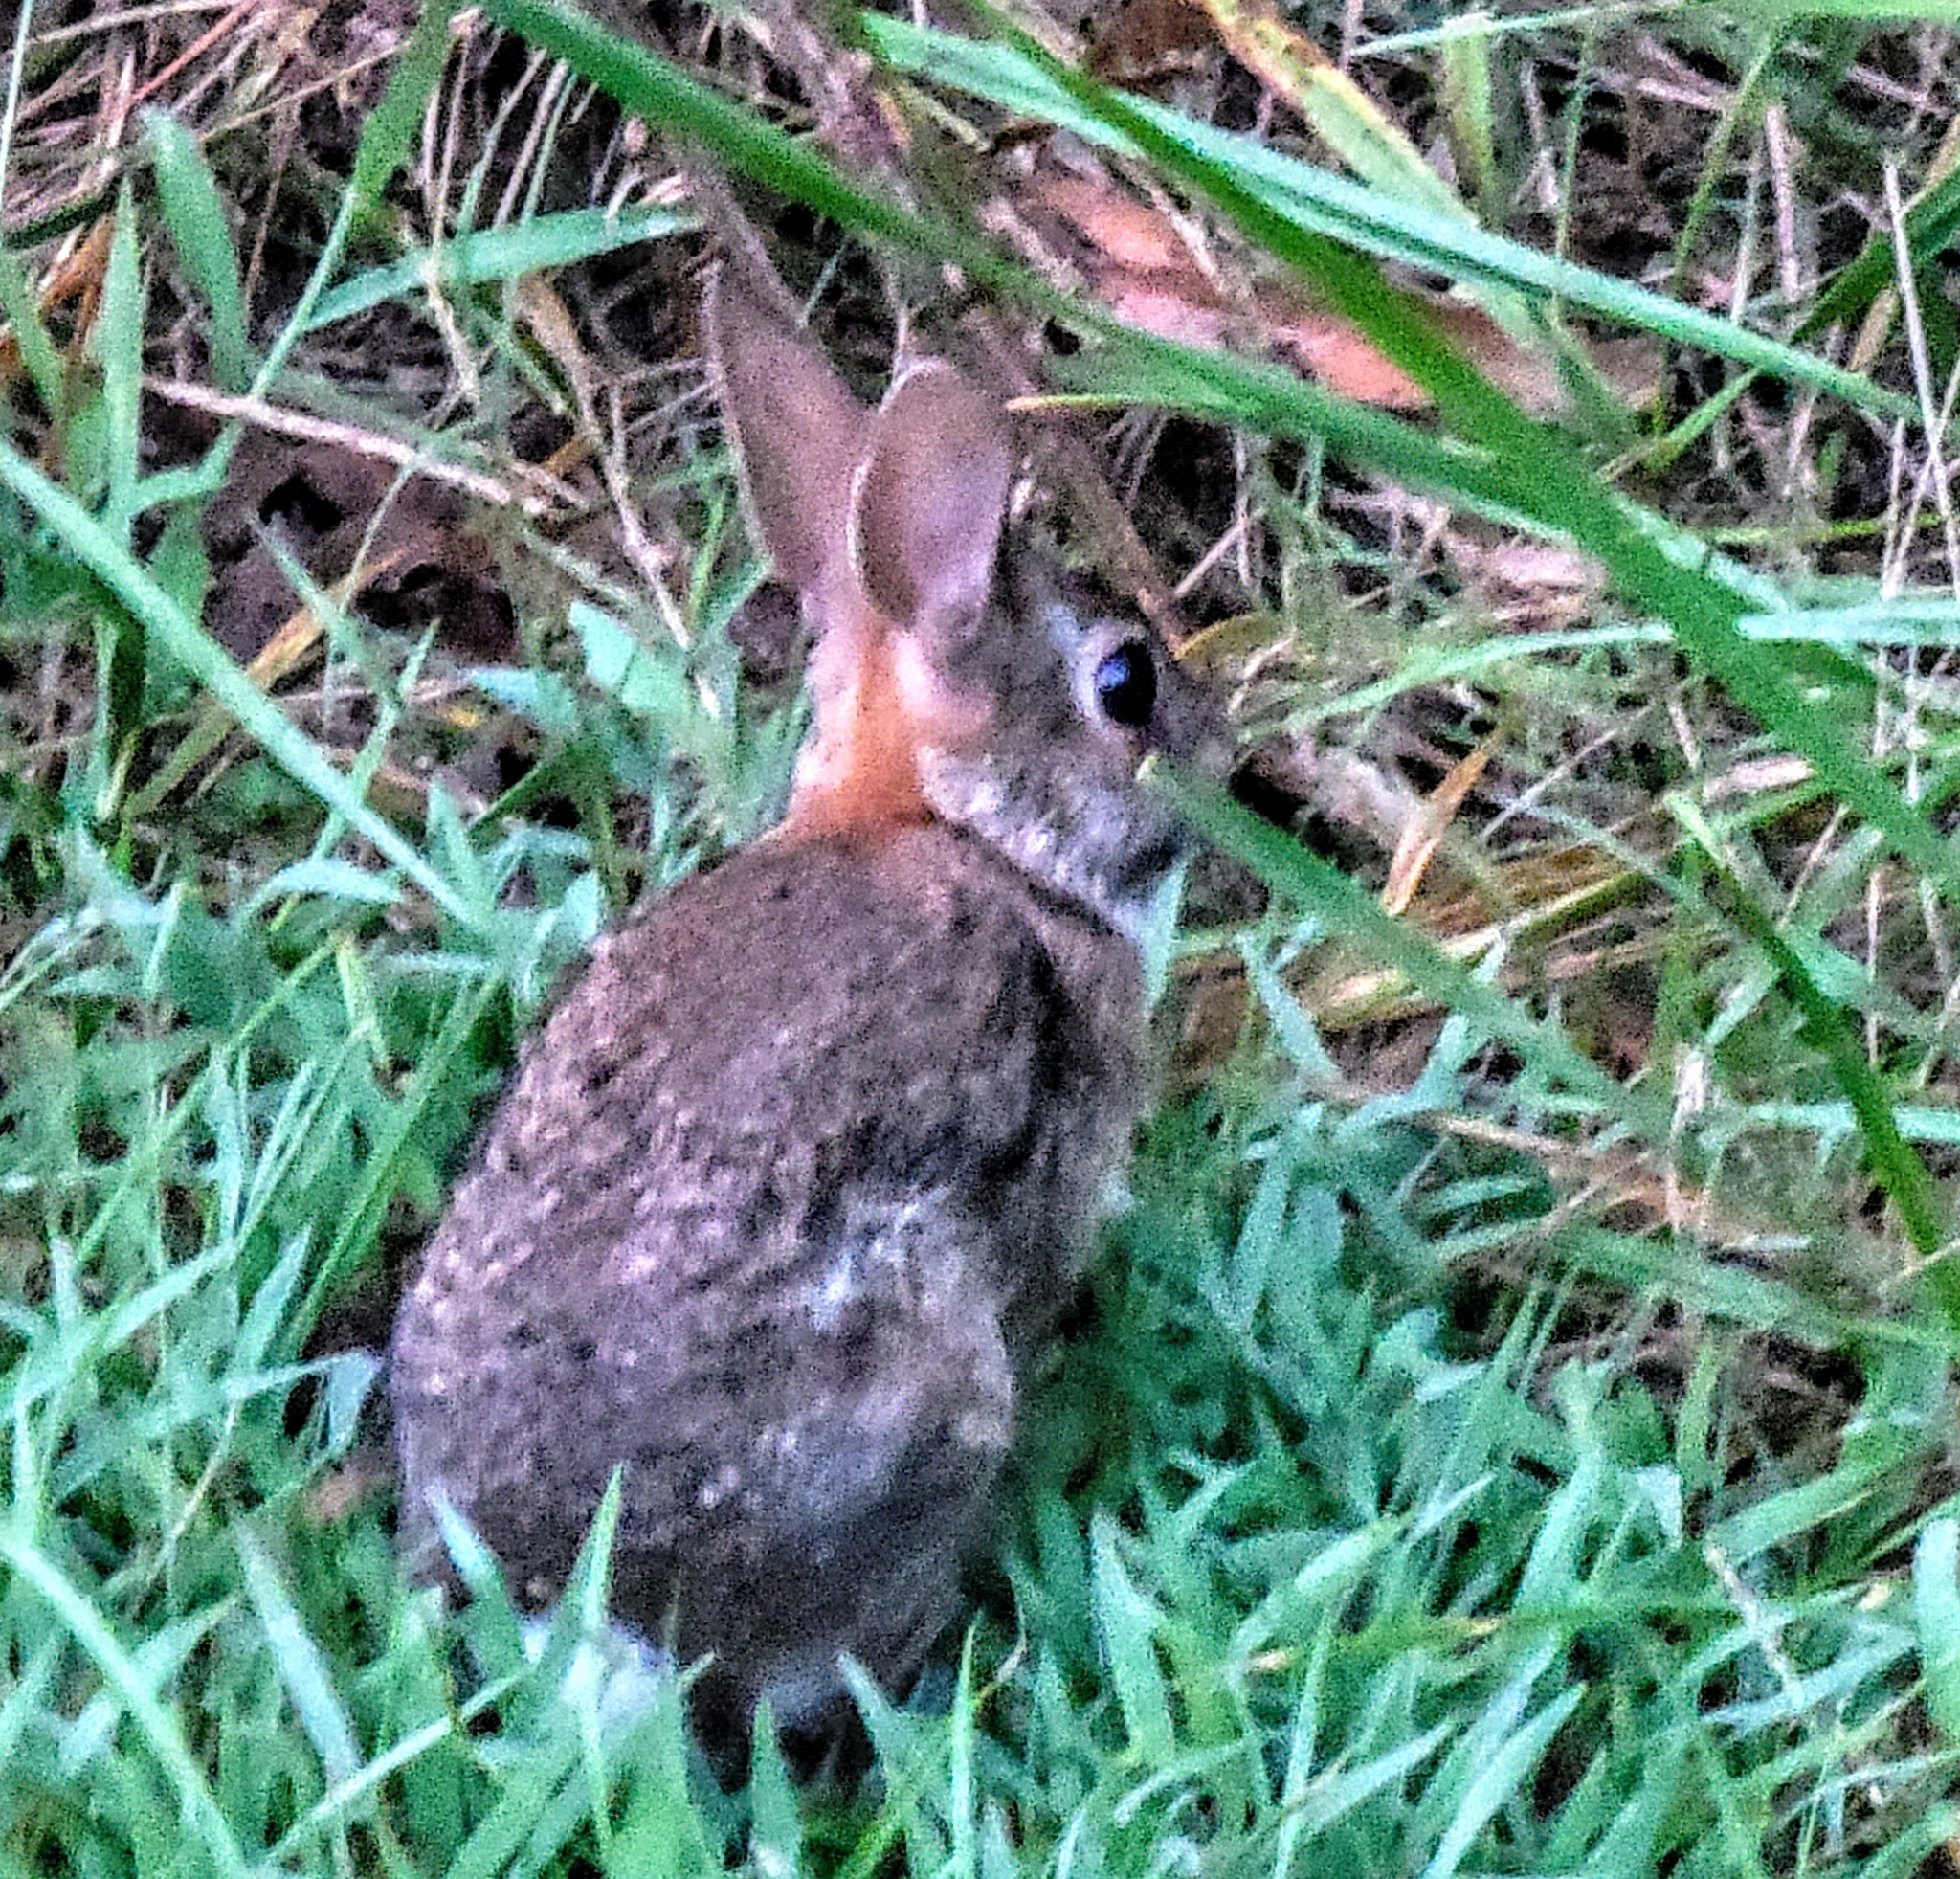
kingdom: Animalia
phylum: Chordata
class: Mammalia
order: Lagomorpha
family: Leporidae
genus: Sylvilagus
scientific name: Sylvilagus floridanus
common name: Eastern cottontail
